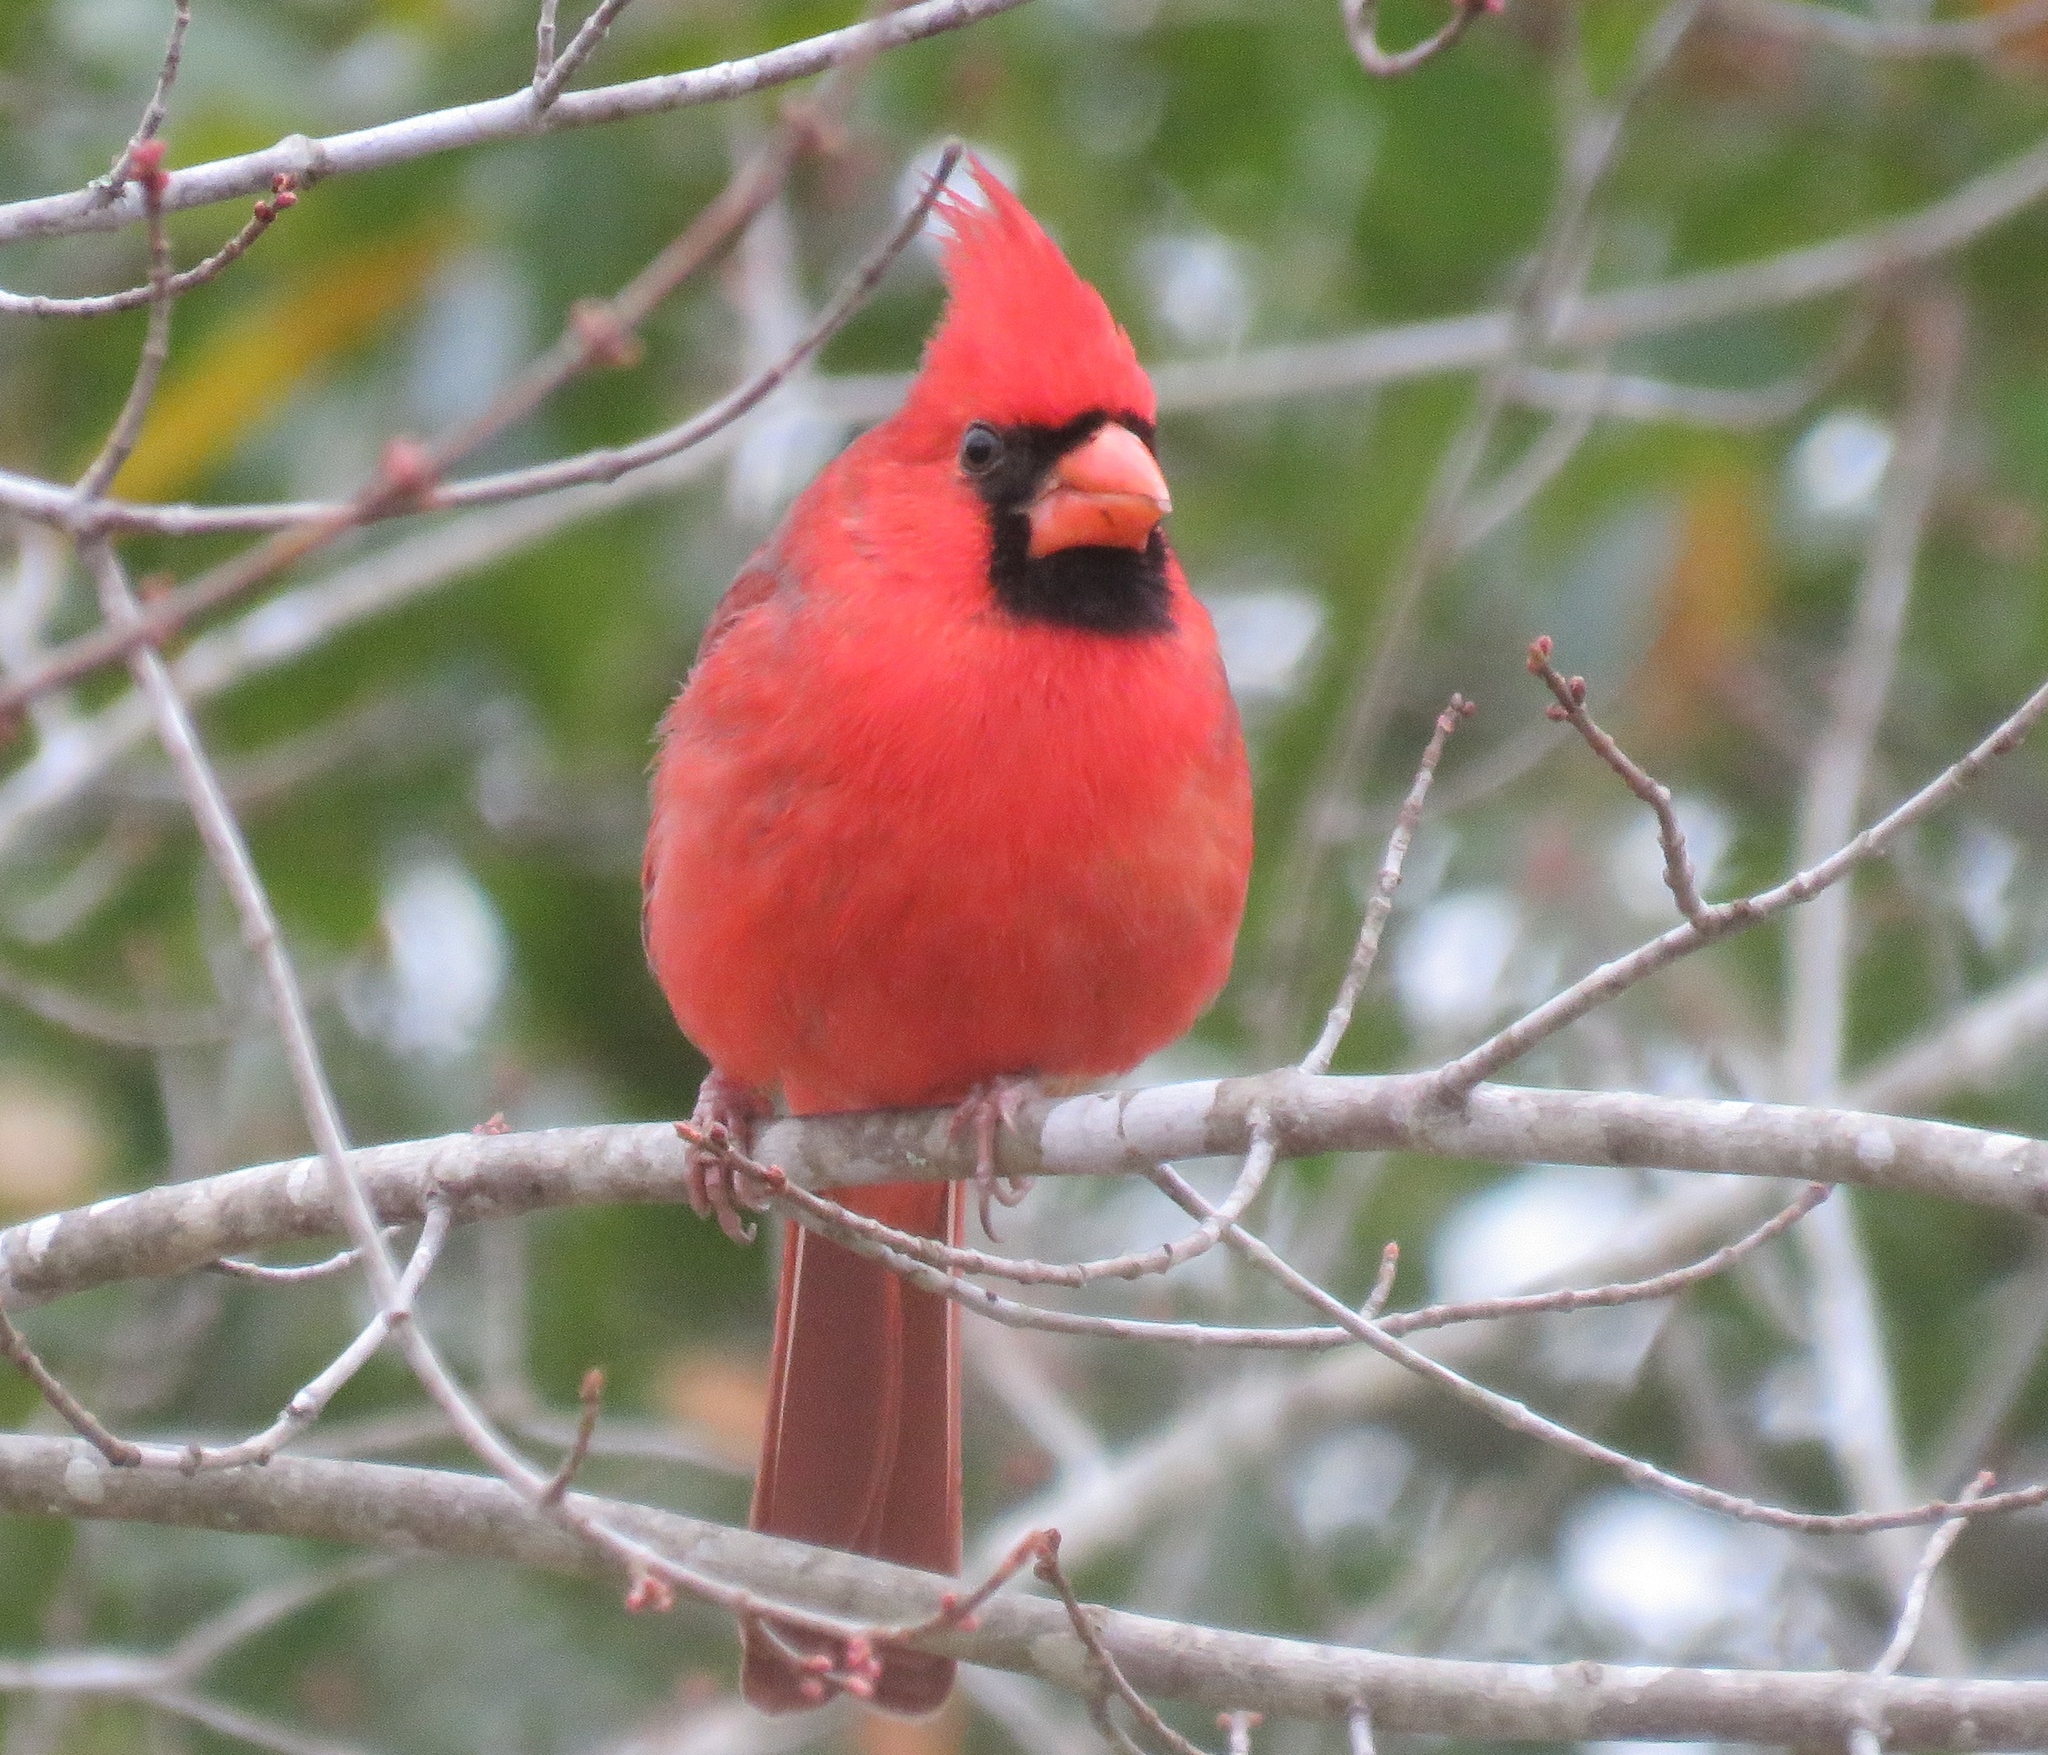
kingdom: Animalia
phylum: Chordata
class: Aves
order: Passeriformes
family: Cardinalidae
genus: Cardinalis
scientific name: Cardinalis cardinalis
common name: Northern cardinal
